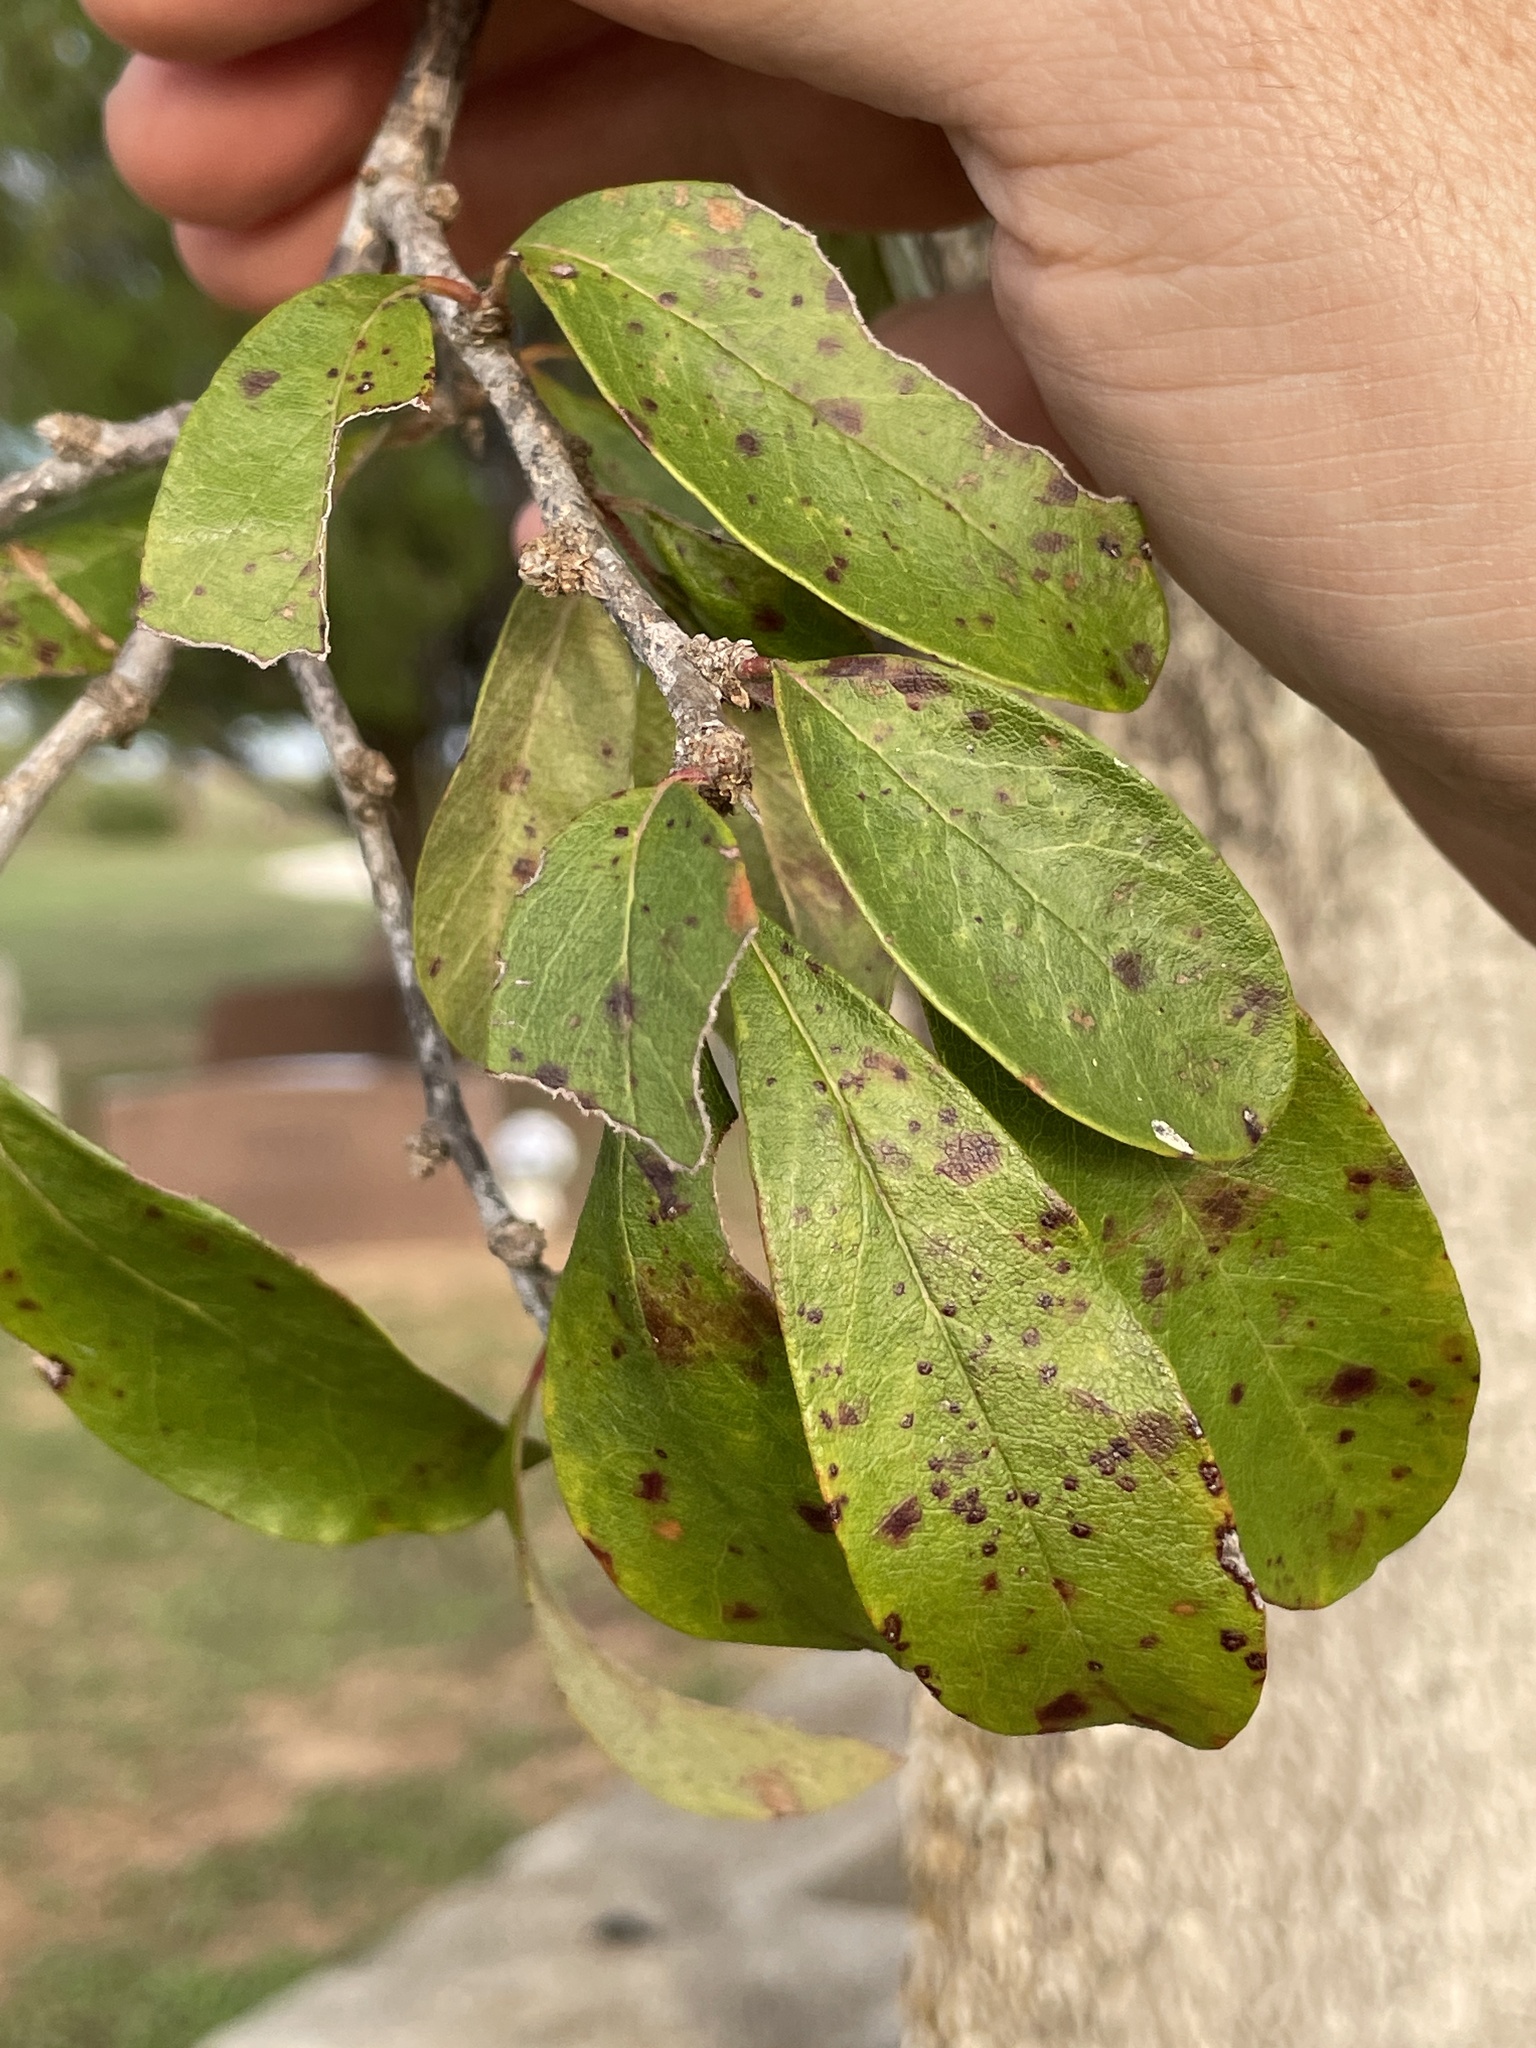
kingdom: Plantae
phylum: Tracheophyta
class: Magnoliopsida
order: Ericales
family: Sapotaceae
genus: Sideroxylon
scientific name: Sideroxylon lanuginosum
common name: Chittamwood
